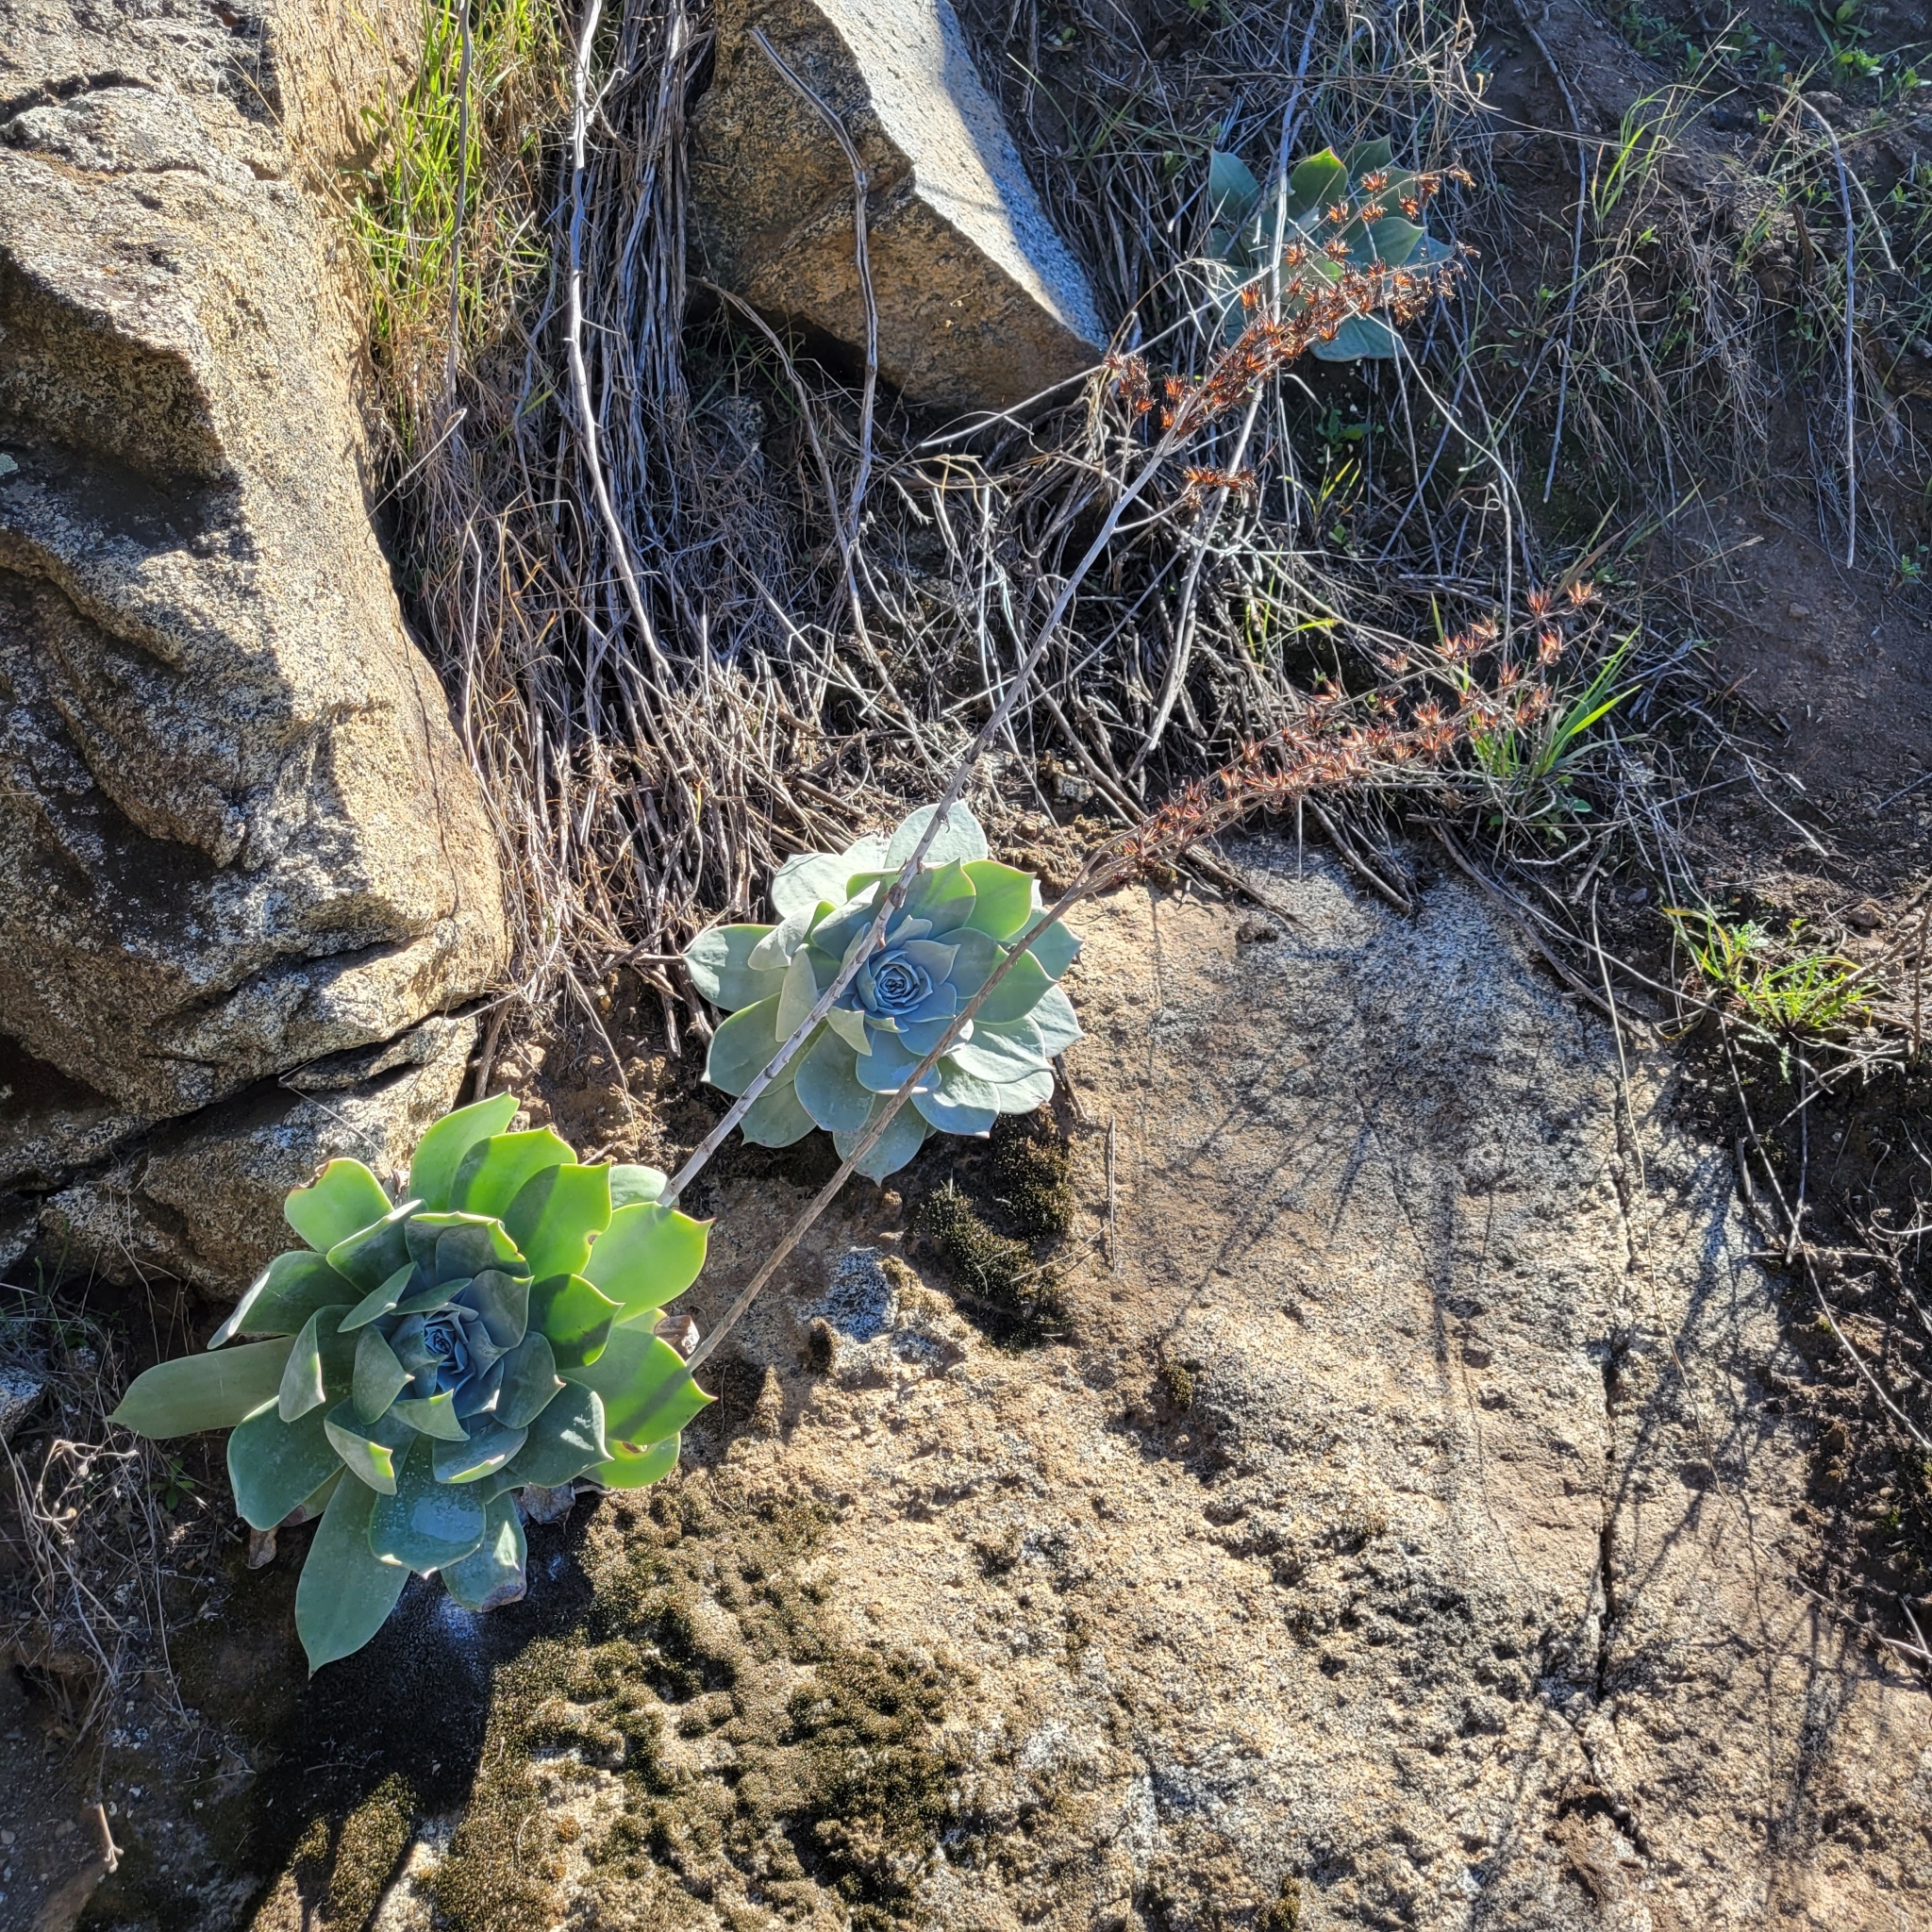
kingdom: Plantae
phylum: Tracheophyta
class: Magnoliopsida
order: Saxifragales
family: Crassulaceae
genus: Dudleya
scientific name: Dudleya pulverulenta
